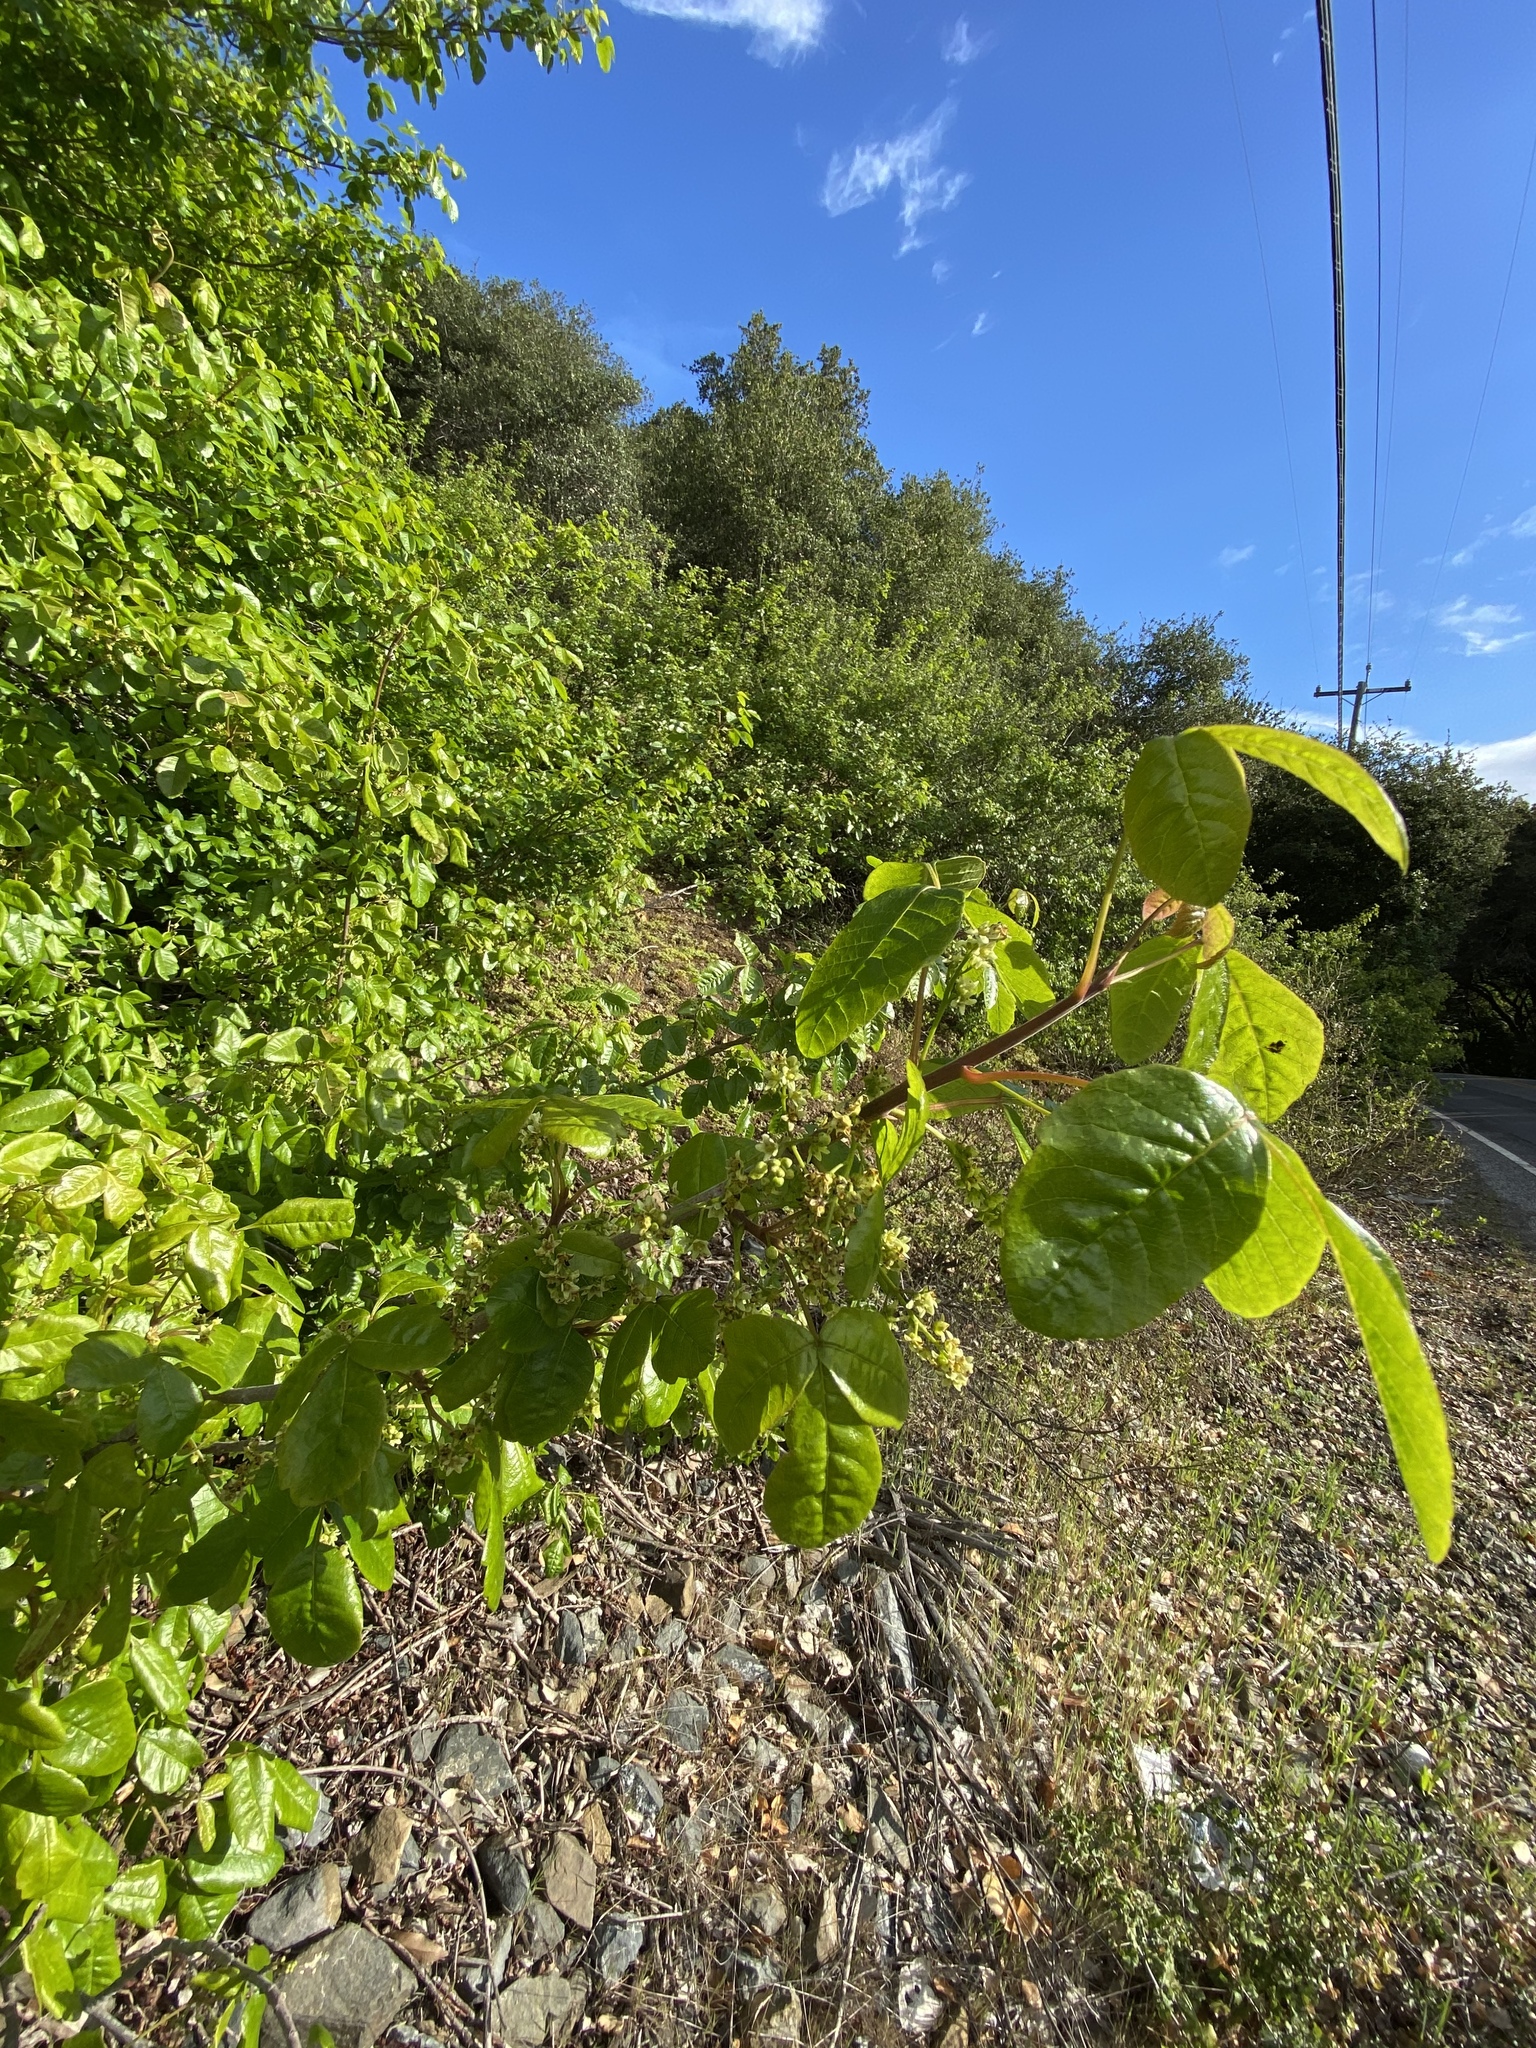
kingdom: Plantae
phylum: Tracheophyta
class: Magnoliopsida
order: Sapindales
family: Anacardiaceae
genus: Toxicodendron
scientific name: Toxicodendron diversilobum
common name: Pacific poison-oak
